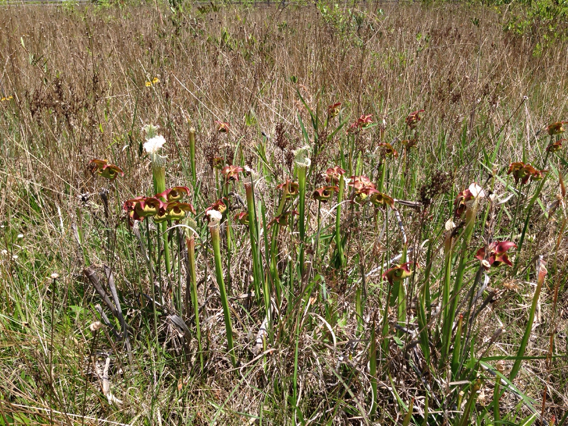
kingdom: Plantae
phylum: Tracheophyta
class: Magnoliopsida
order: Ericales
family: Sarraceniaceae
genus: Sarracenia
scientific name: Sarracenia leucophylla
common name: Purple trumpetleaf
